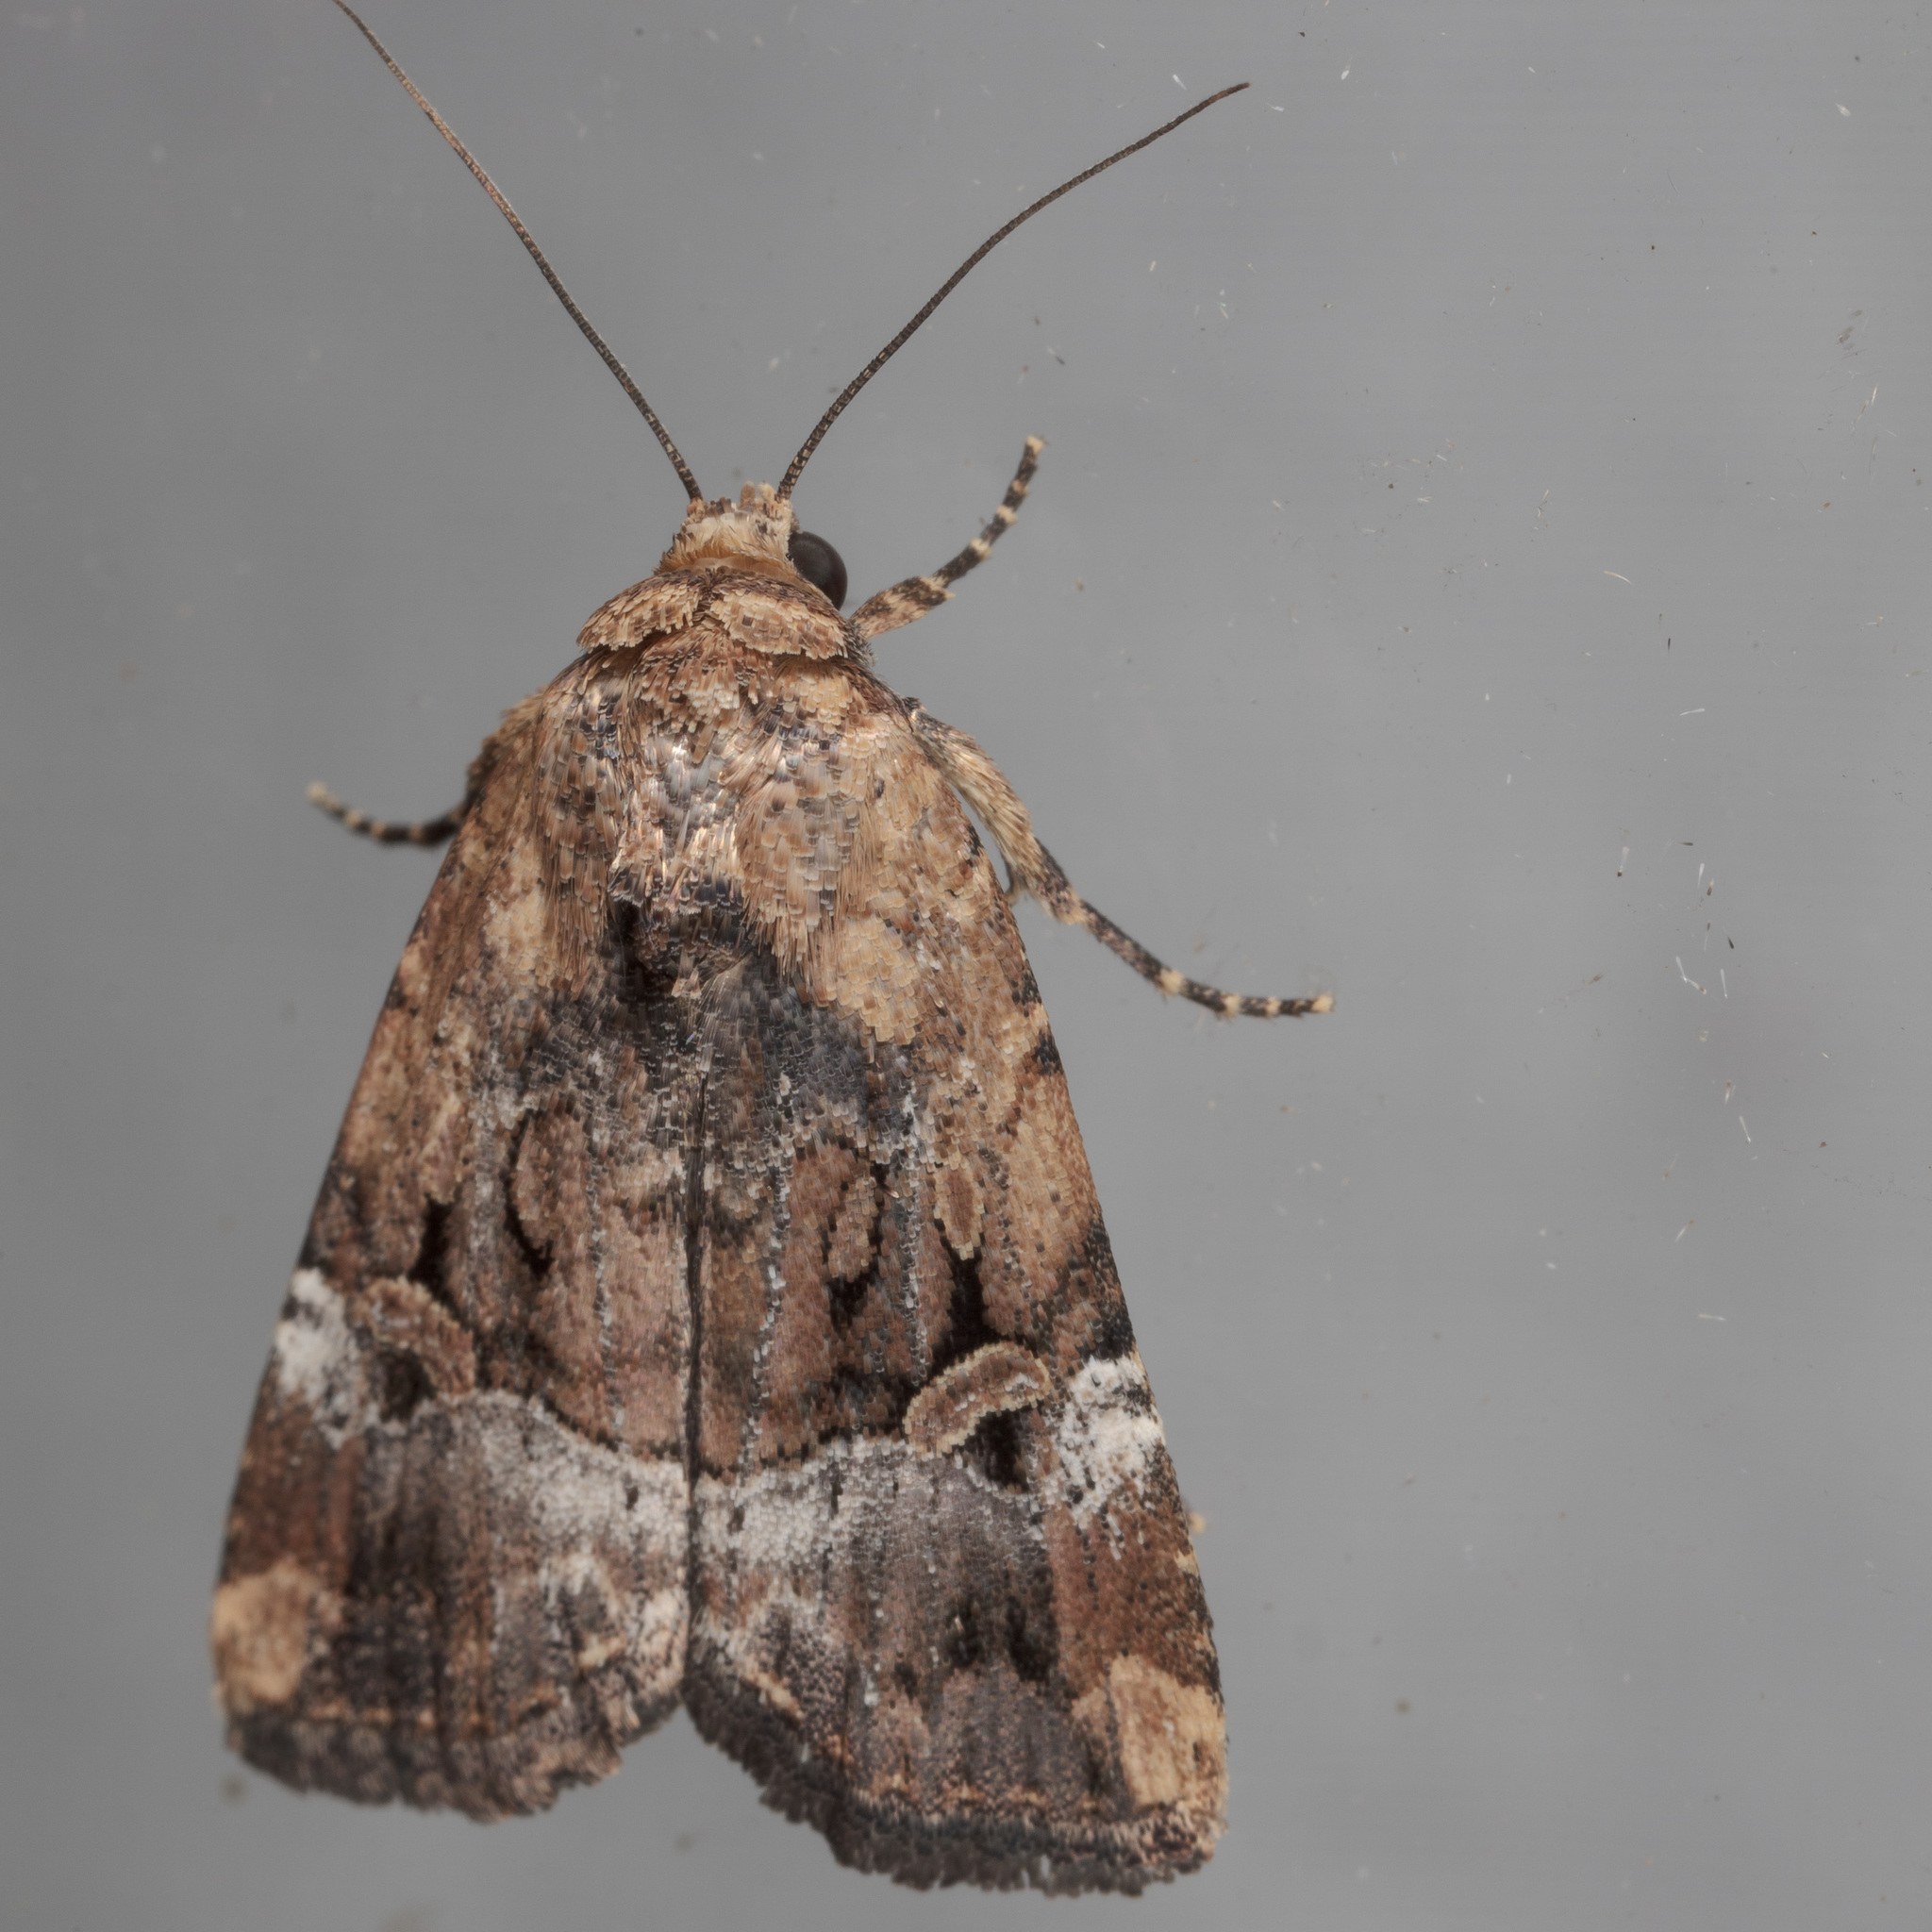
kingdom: Animalia
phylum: Arthropoda
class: Insecta
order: Lepidoptera
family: Noctuidae
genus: Elaphria
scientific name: Elaphria chalcedonia
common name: Chalcedony midget
